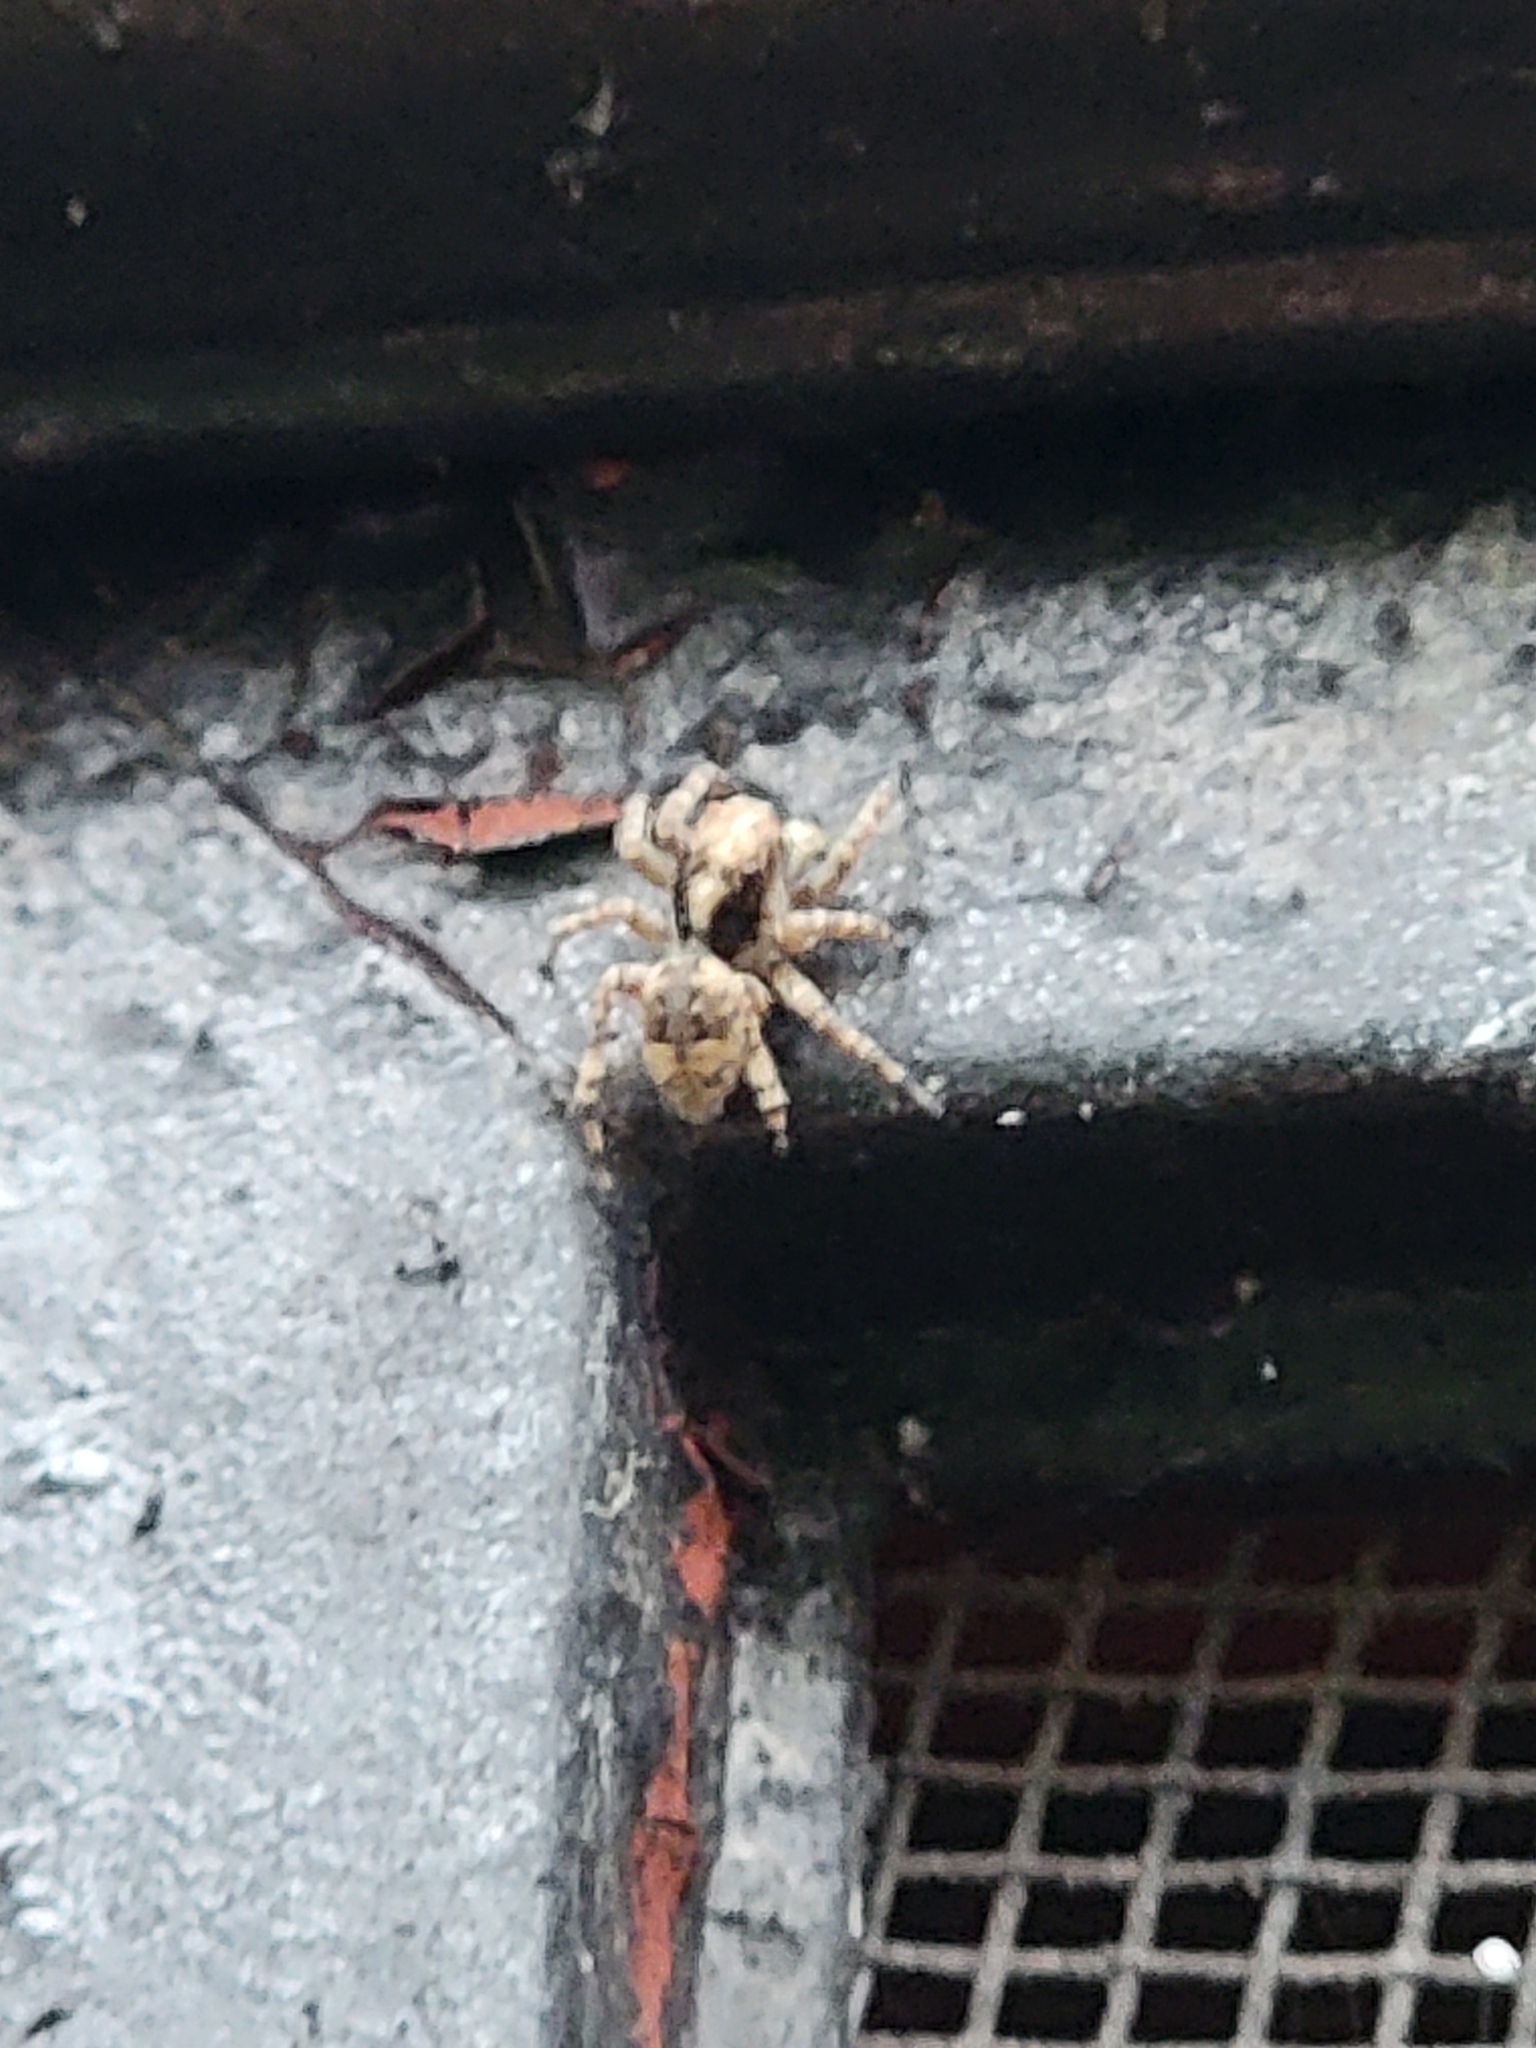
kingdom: Animalia
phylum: Arthropoda
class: Arachnida
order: Araneae
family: Salticidae
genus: Attulus
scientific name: Attulus fasciger
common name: Asiatic wall jumping spider
